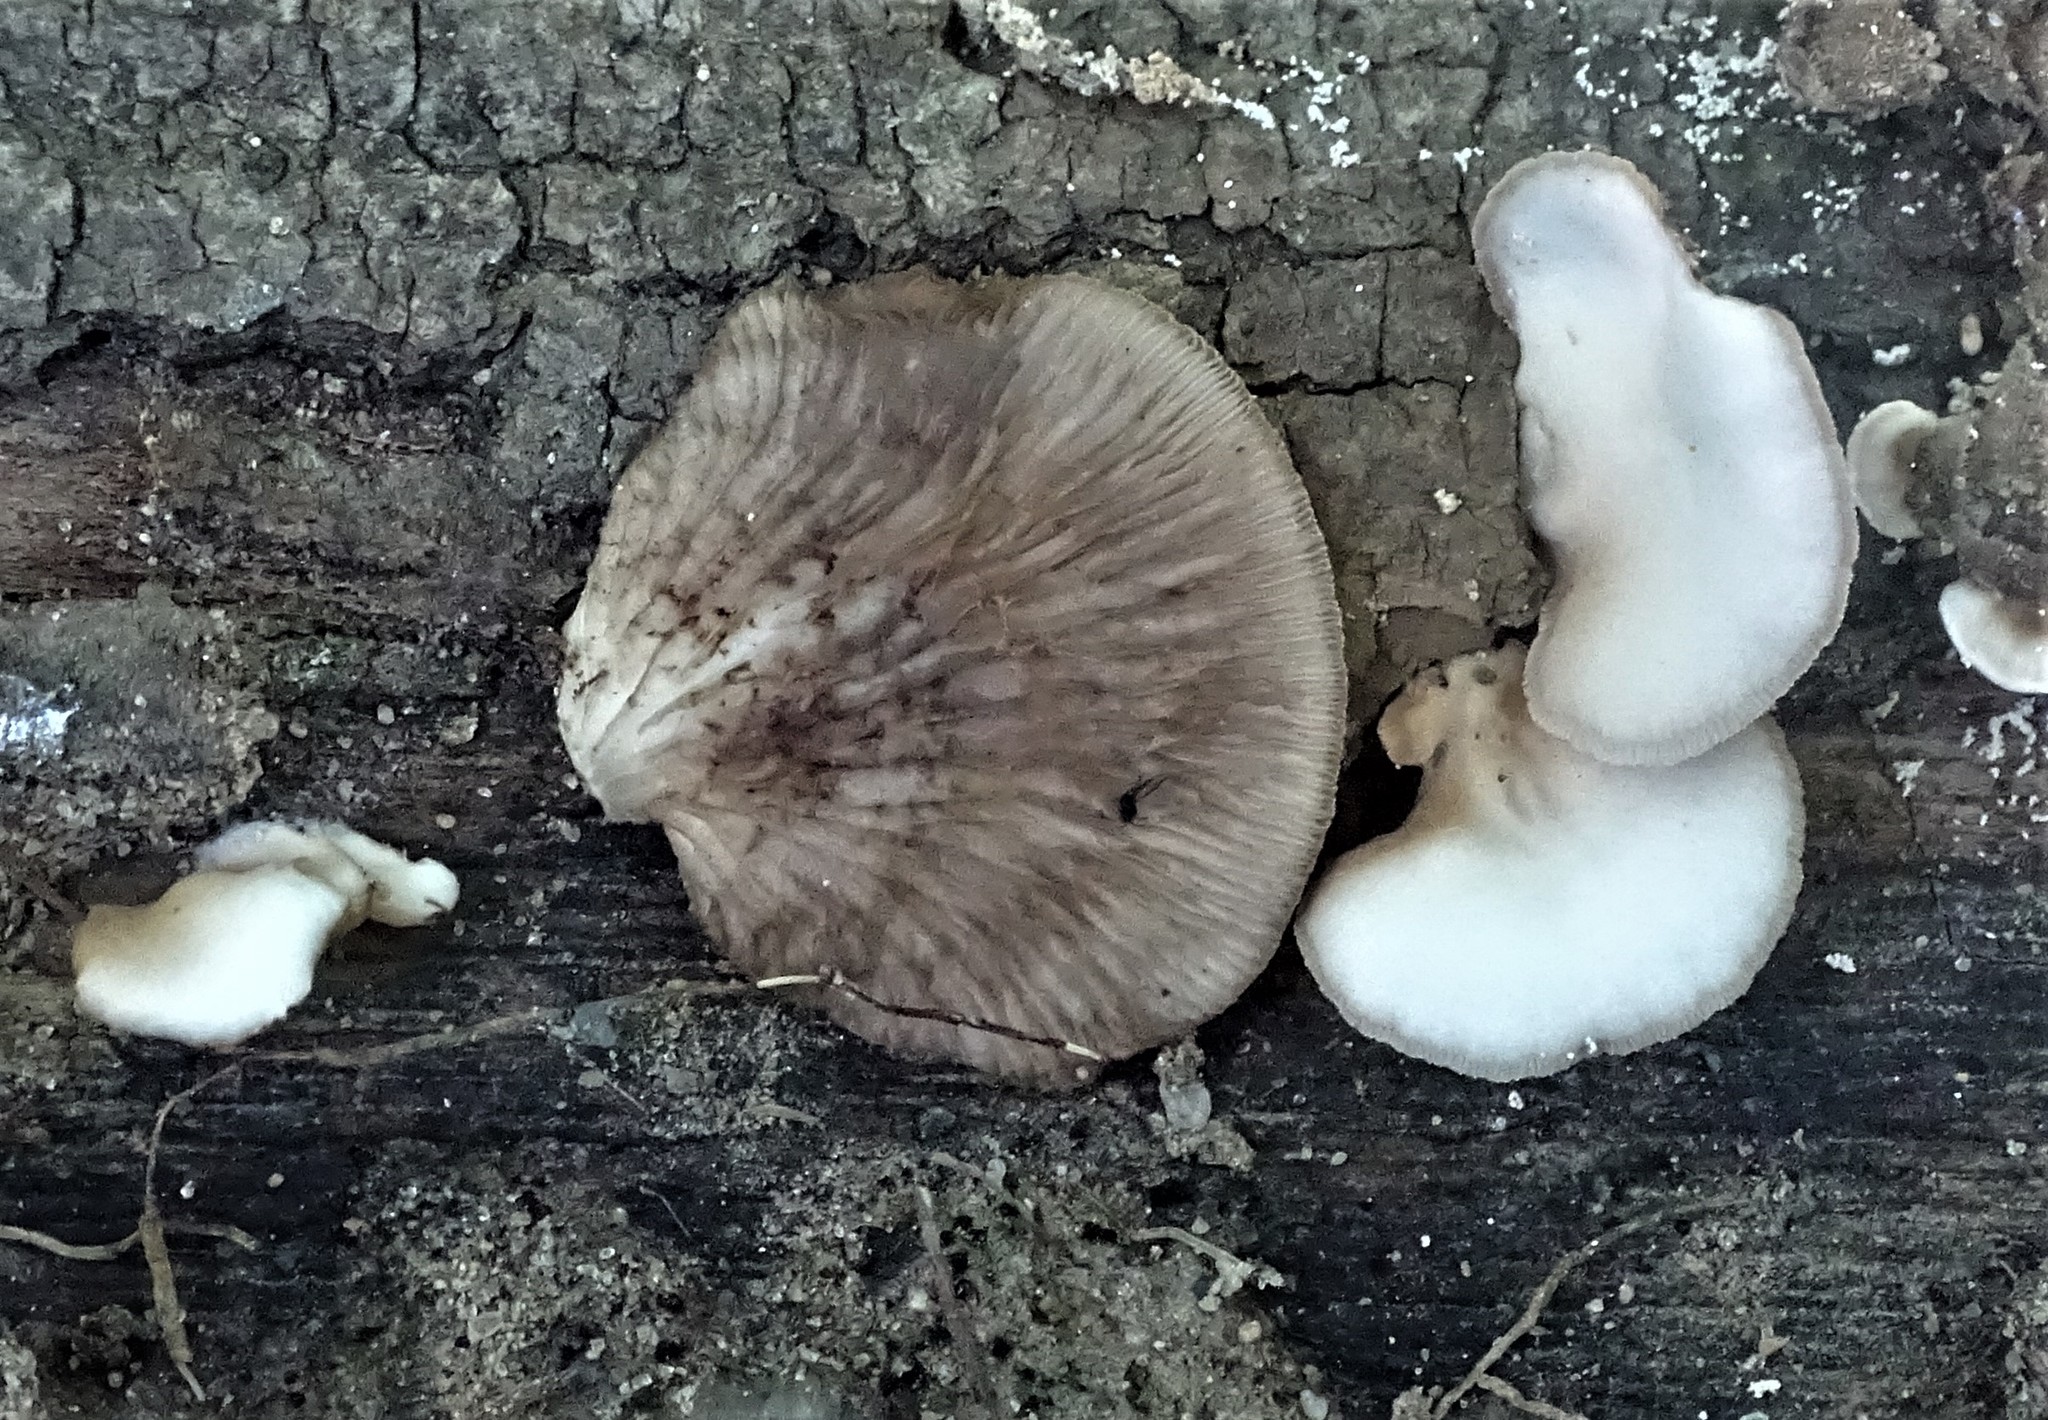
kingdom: Fungi
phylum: Basidiomycota
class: Agaricomycetes
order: Agaricales
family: Crepidotaceae
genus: Crepidotus
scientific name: Crepidotus applanatus
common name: Flat crep
